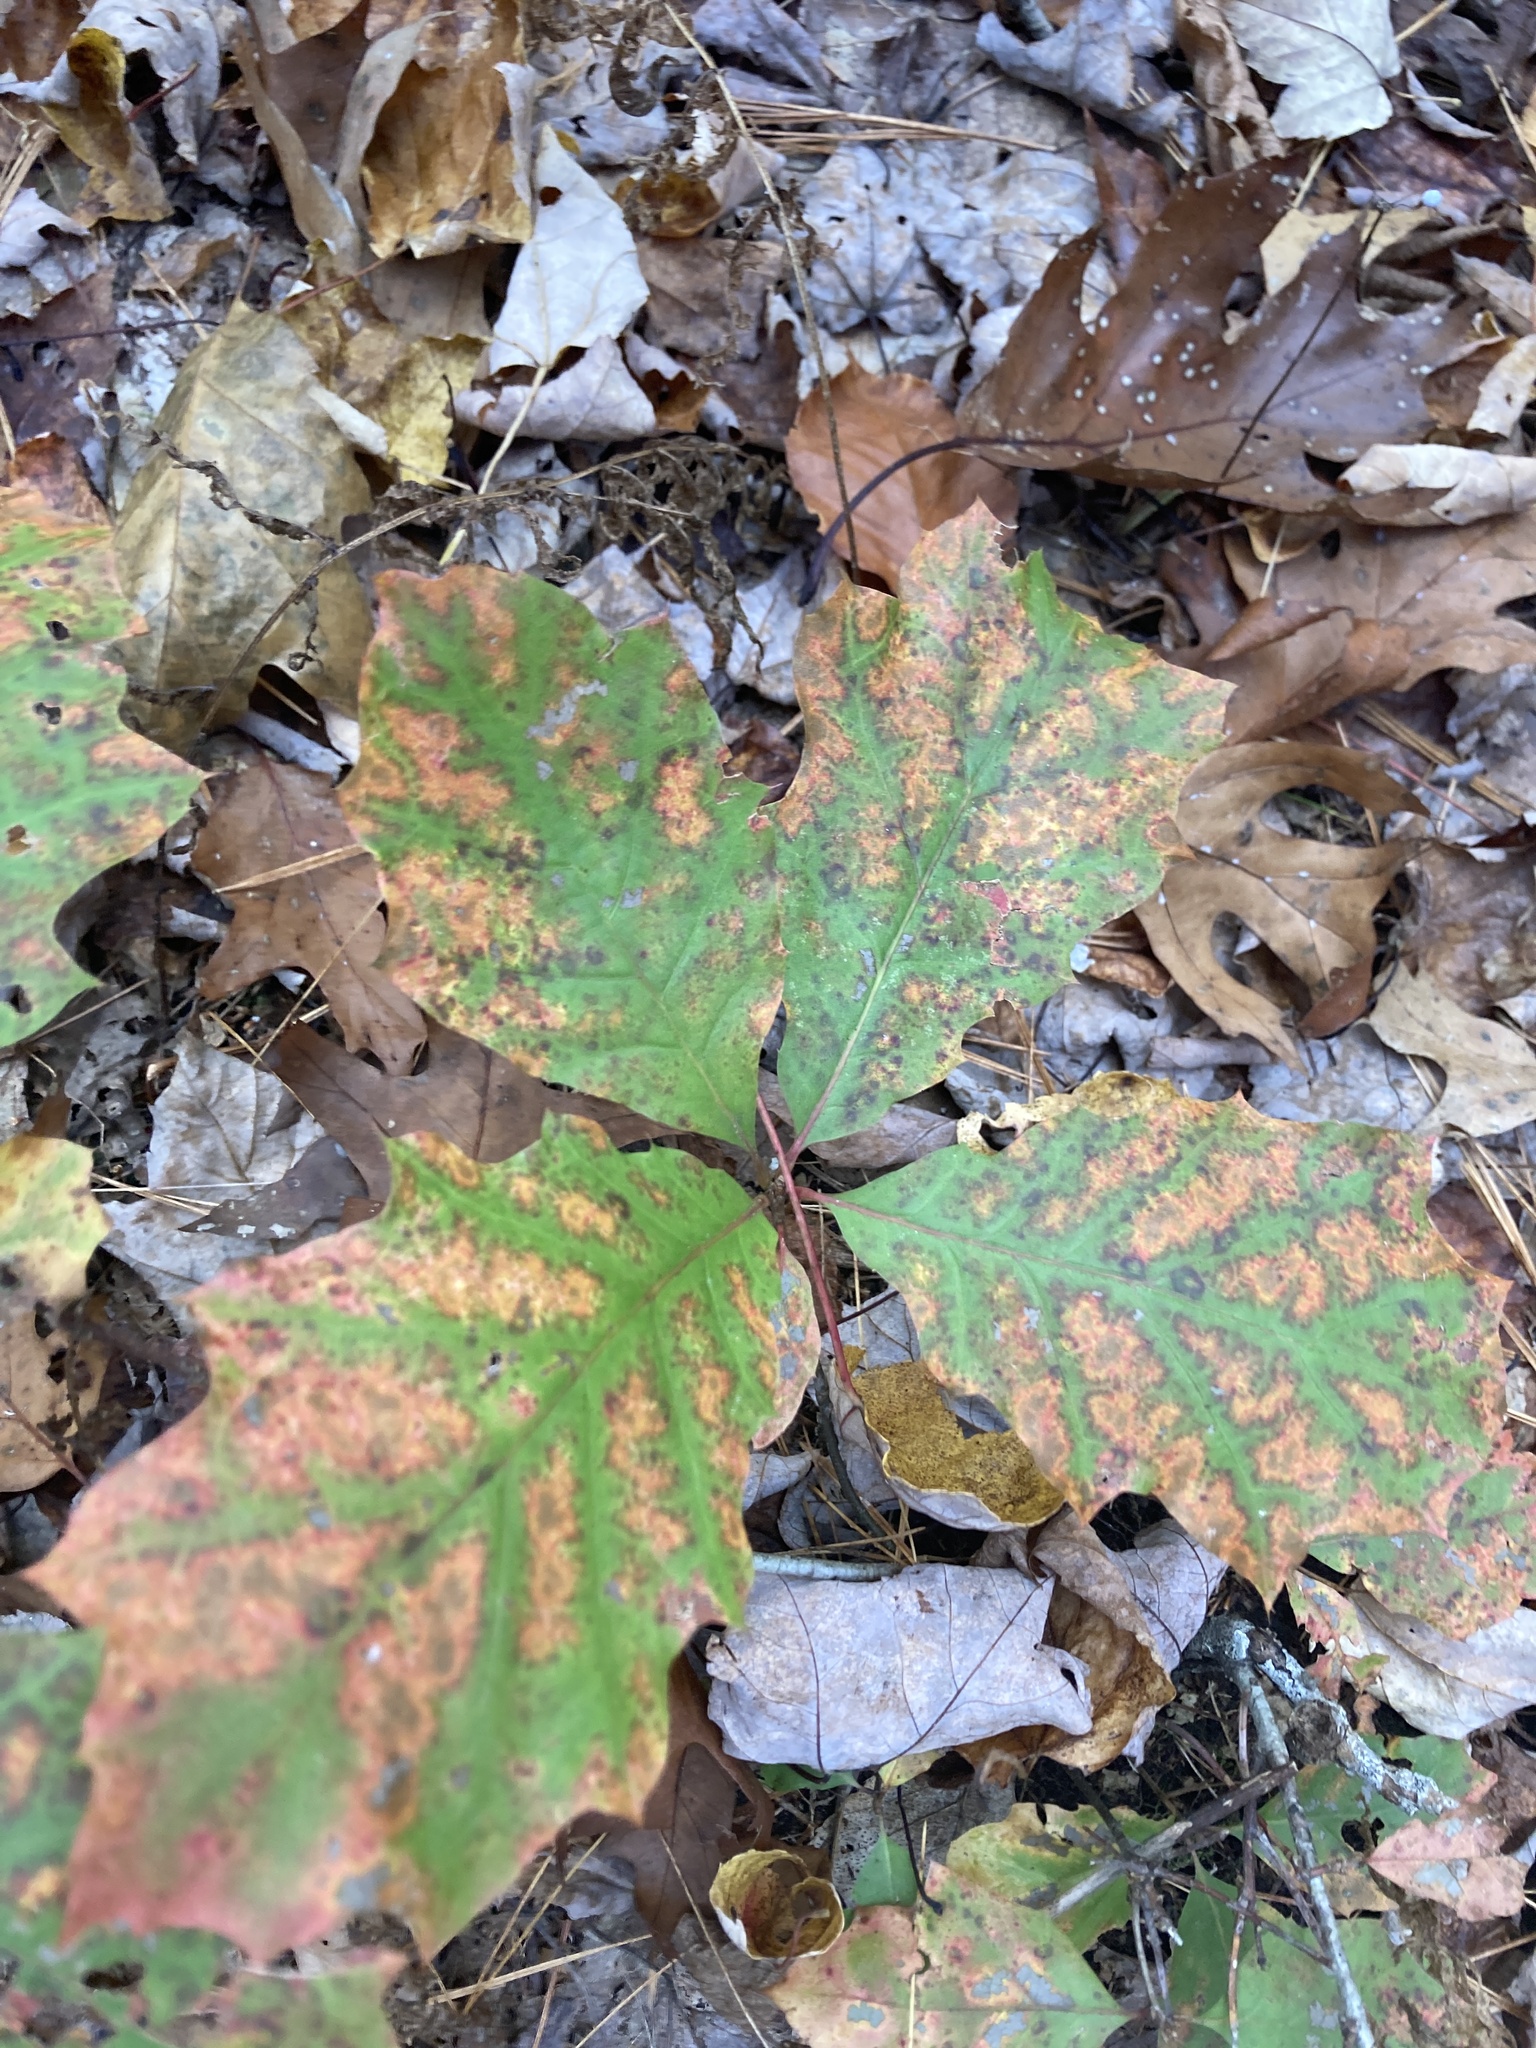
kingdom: Plantae
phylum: Tracheophyta
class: Magnoliopsida
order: Fagales
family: Fagaceae
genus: Quercus
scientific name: Quercus rubra
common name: Red oak
